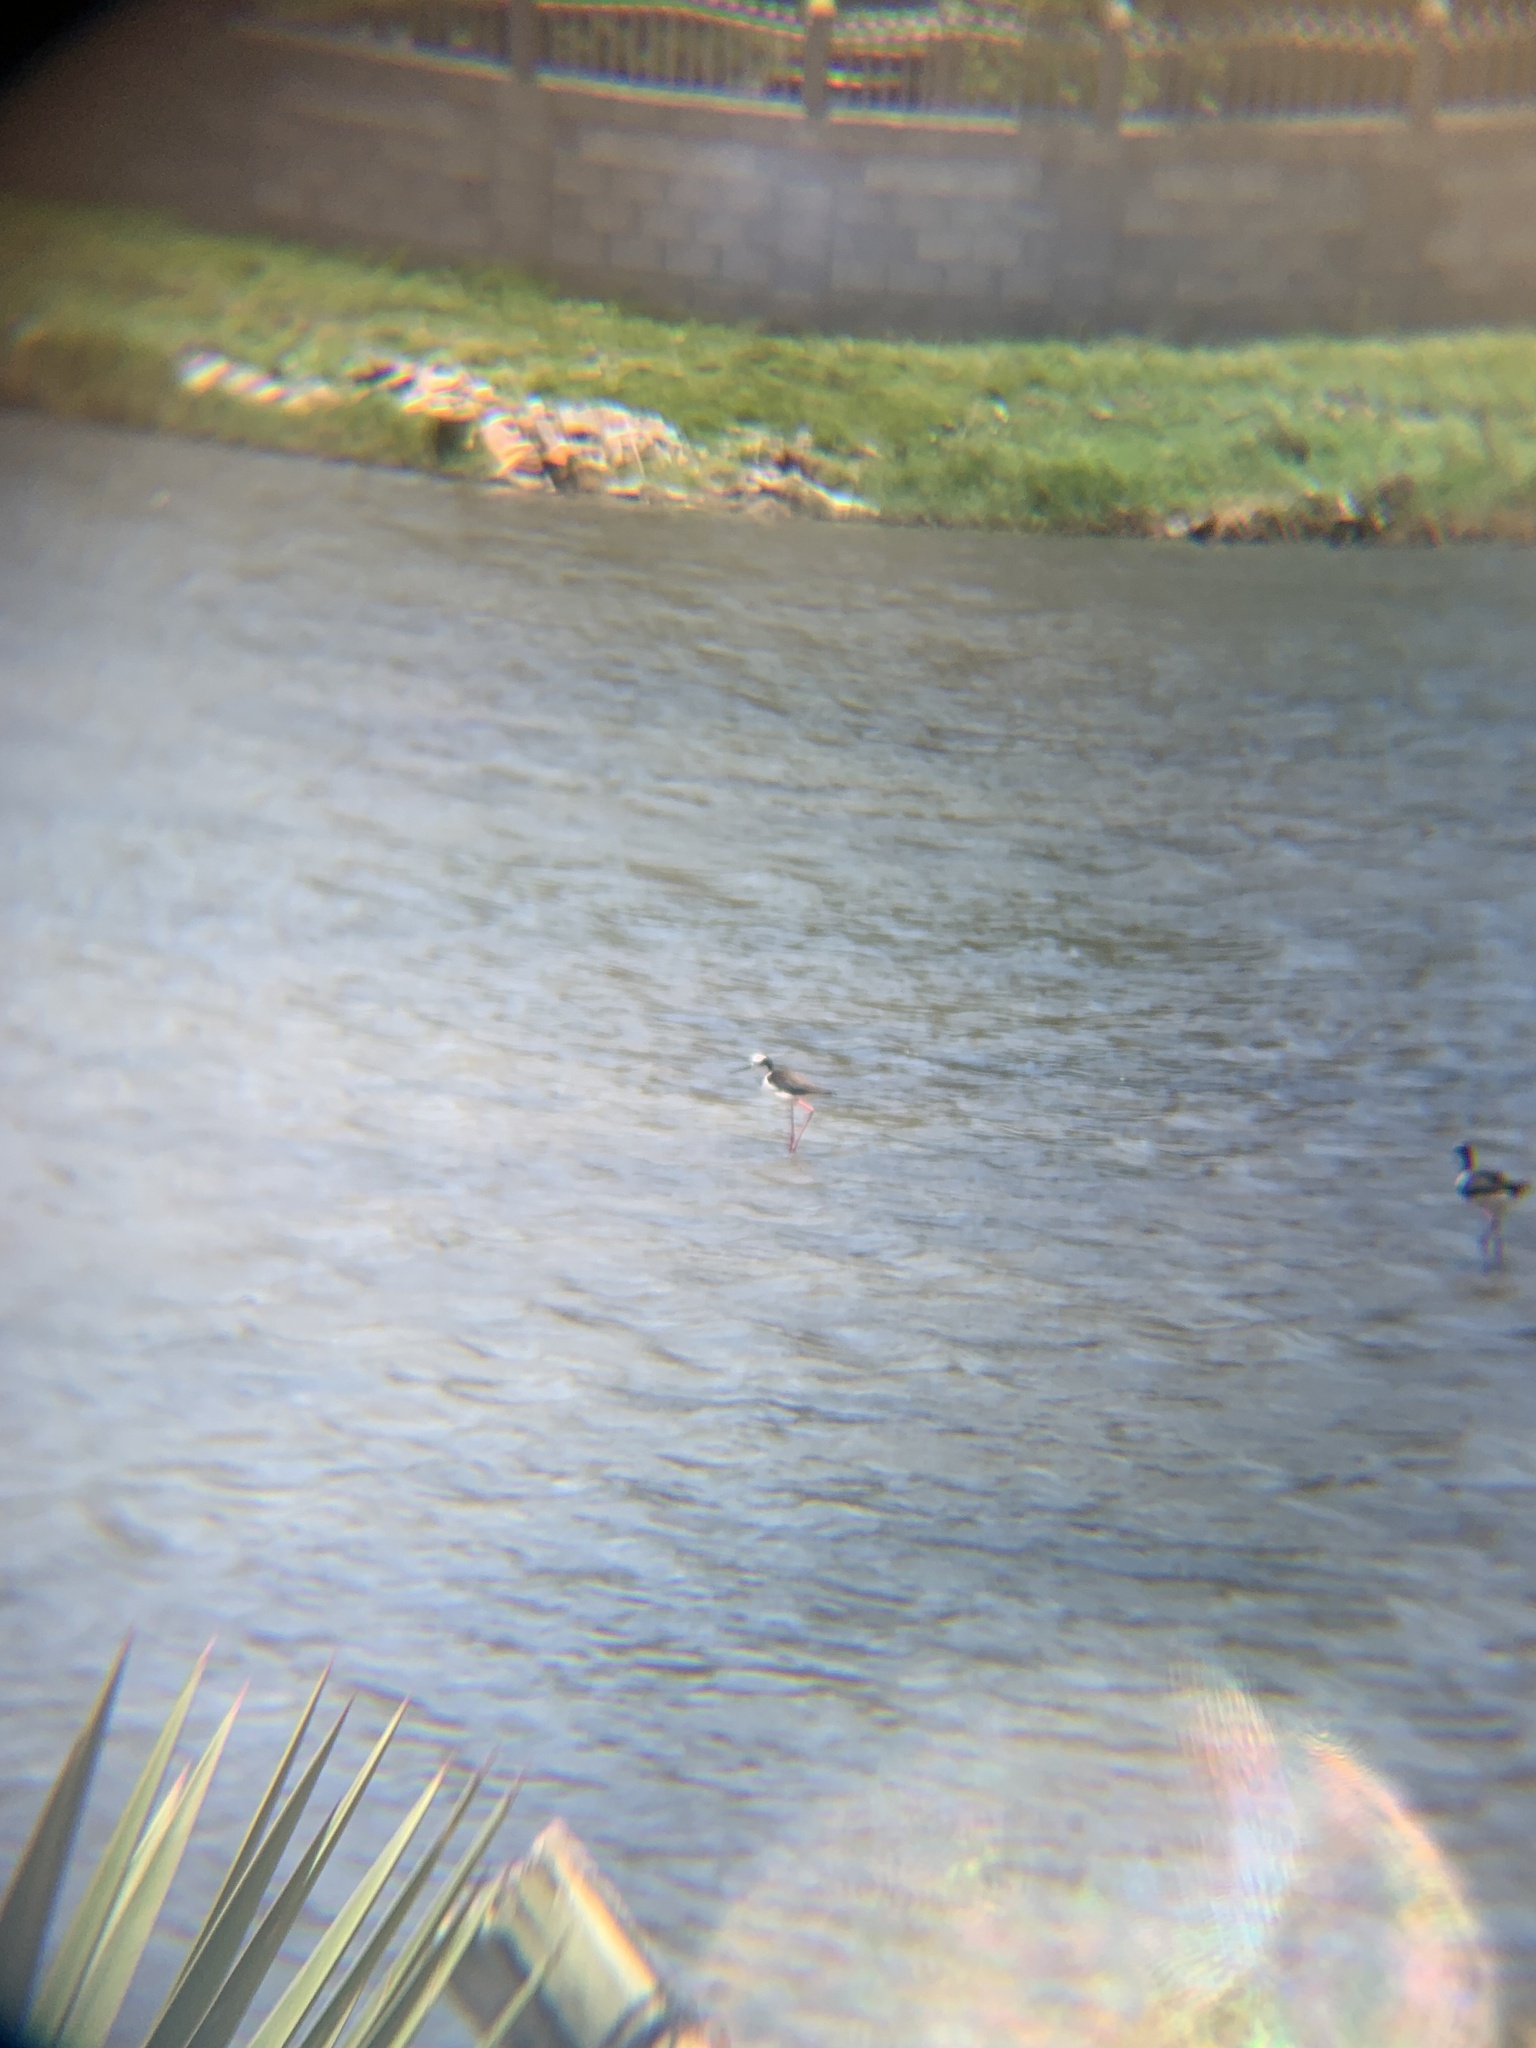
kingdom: Animalia
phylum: Chordata
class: Aves
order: Charadriiformes
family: Recurvirostridae
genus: Himantopus
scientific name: Himantopus mexicanus
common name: Black-necked stilt
